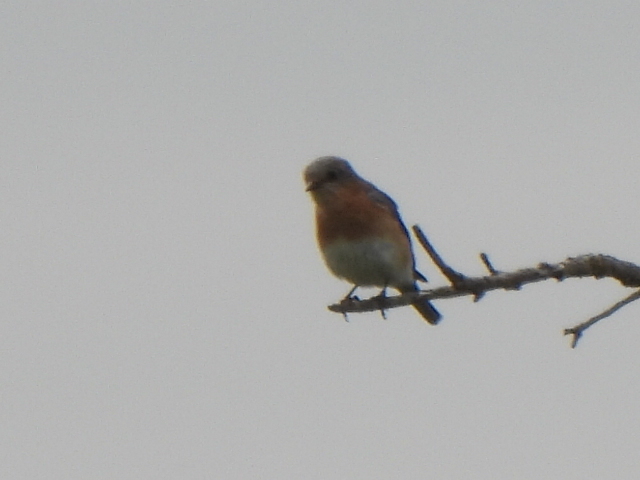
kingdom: Animalia
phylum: Chordata
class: Aves
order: Passeriformes
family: Turdidae
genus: Sialia
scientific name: Sialia sialis
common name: Eastern bluebird
